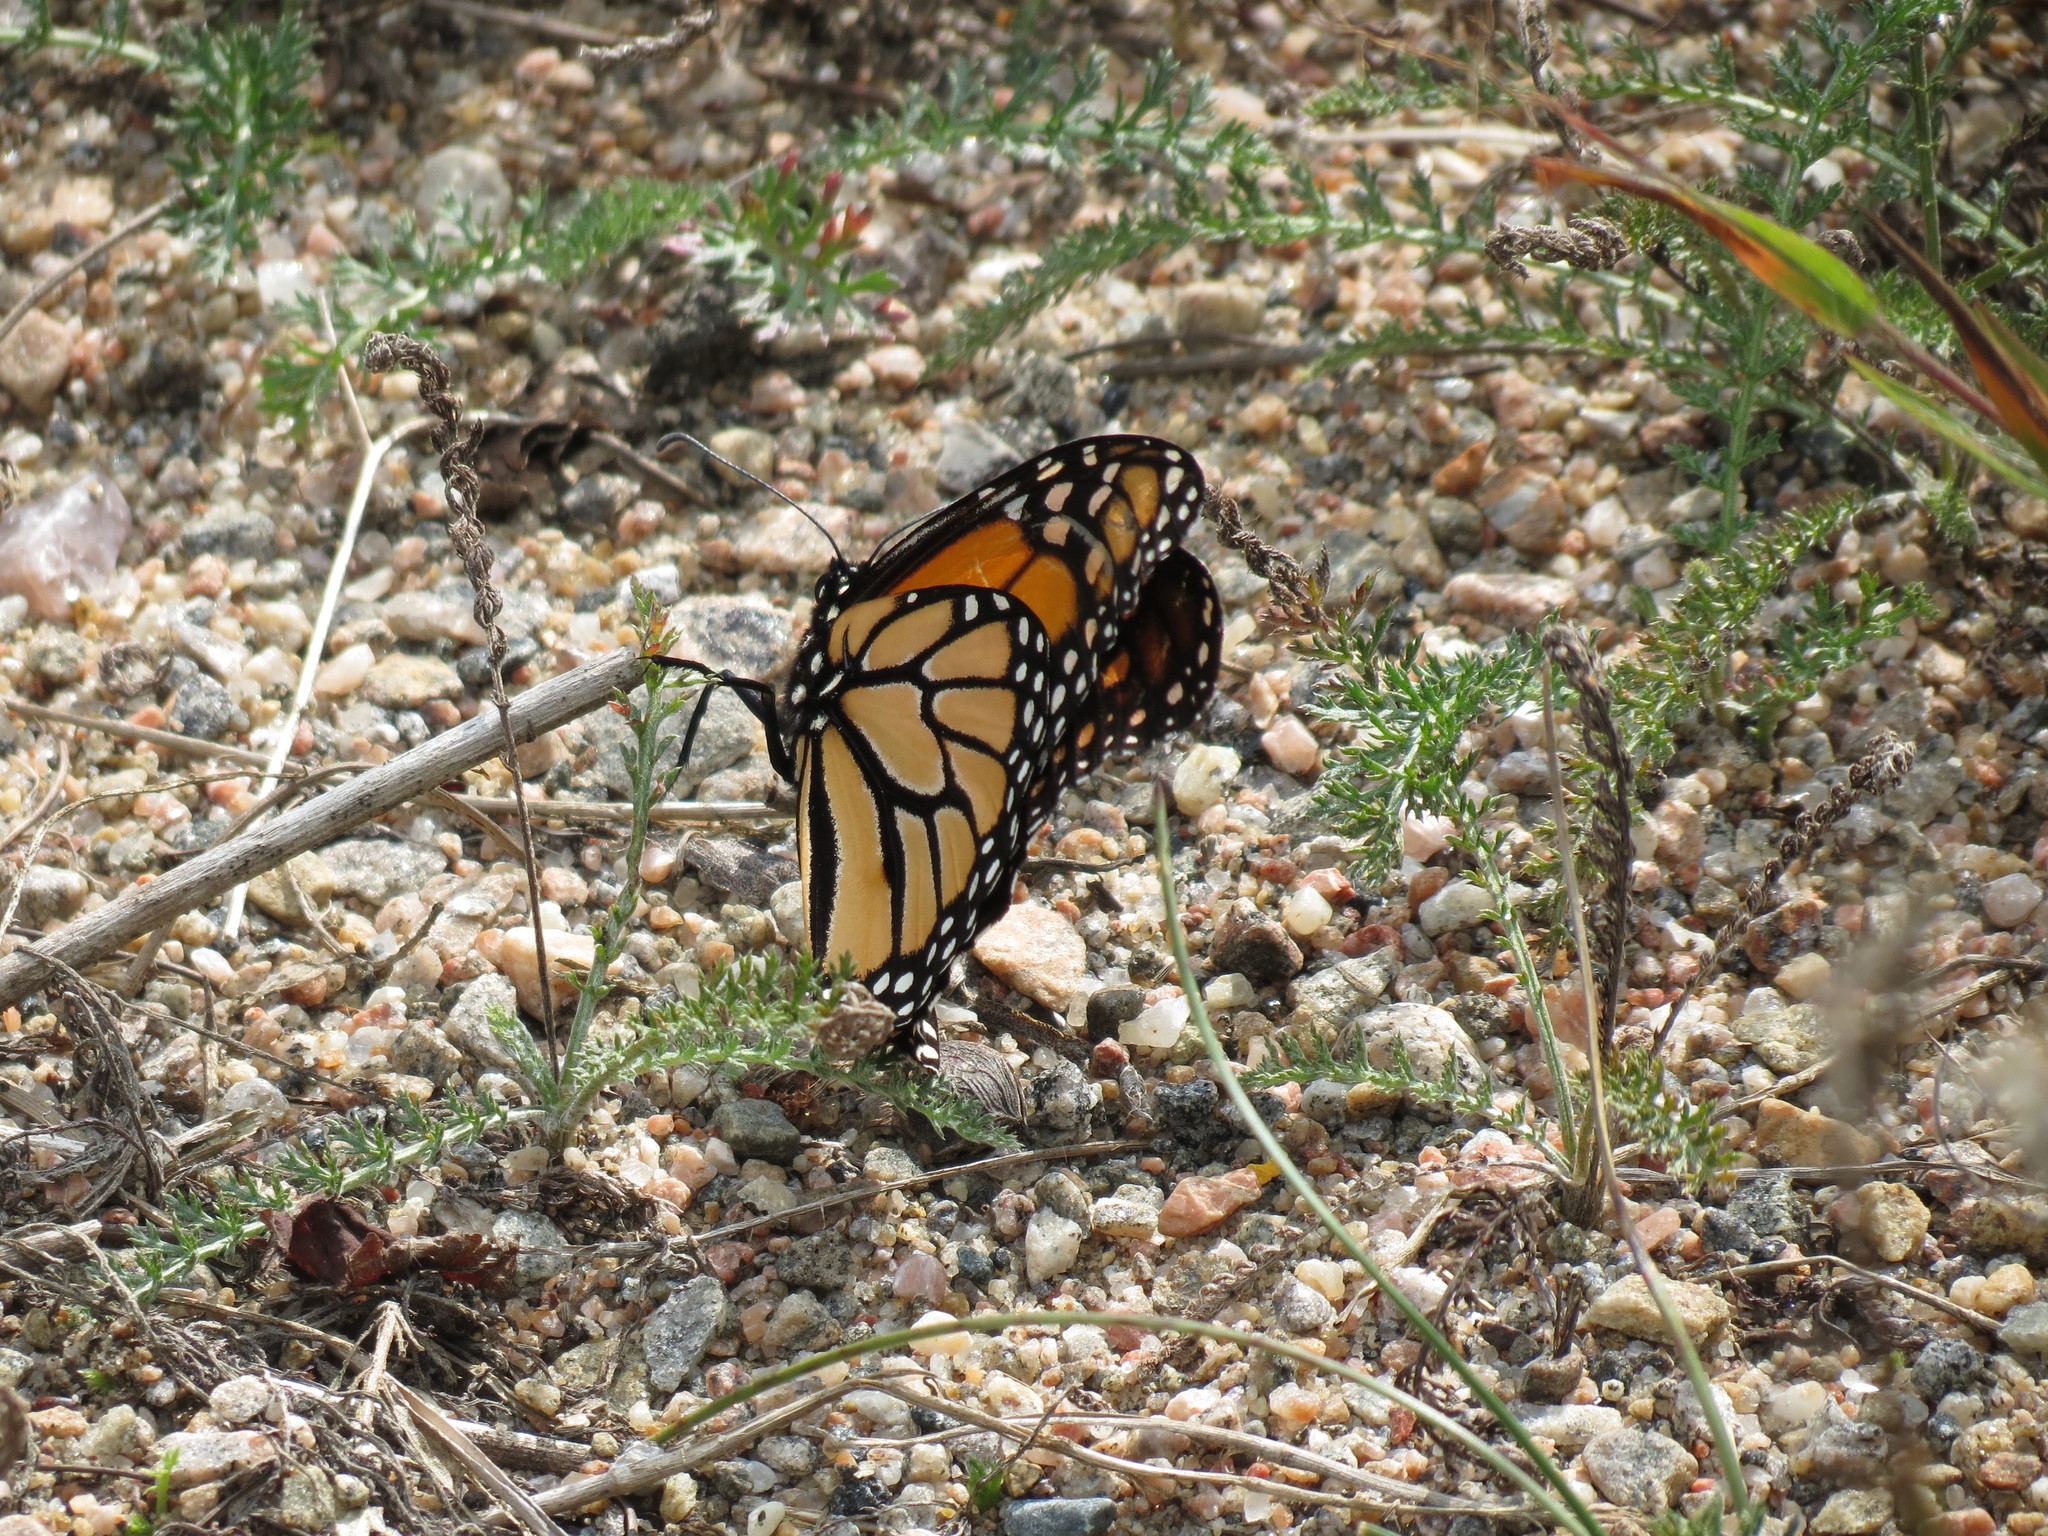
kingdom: Animalia
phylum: Arthropoda
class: Insecta
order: Lepidoptera
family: Nymphalidae
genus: Danaus
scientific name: Danaus plexippus
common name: Monarch
